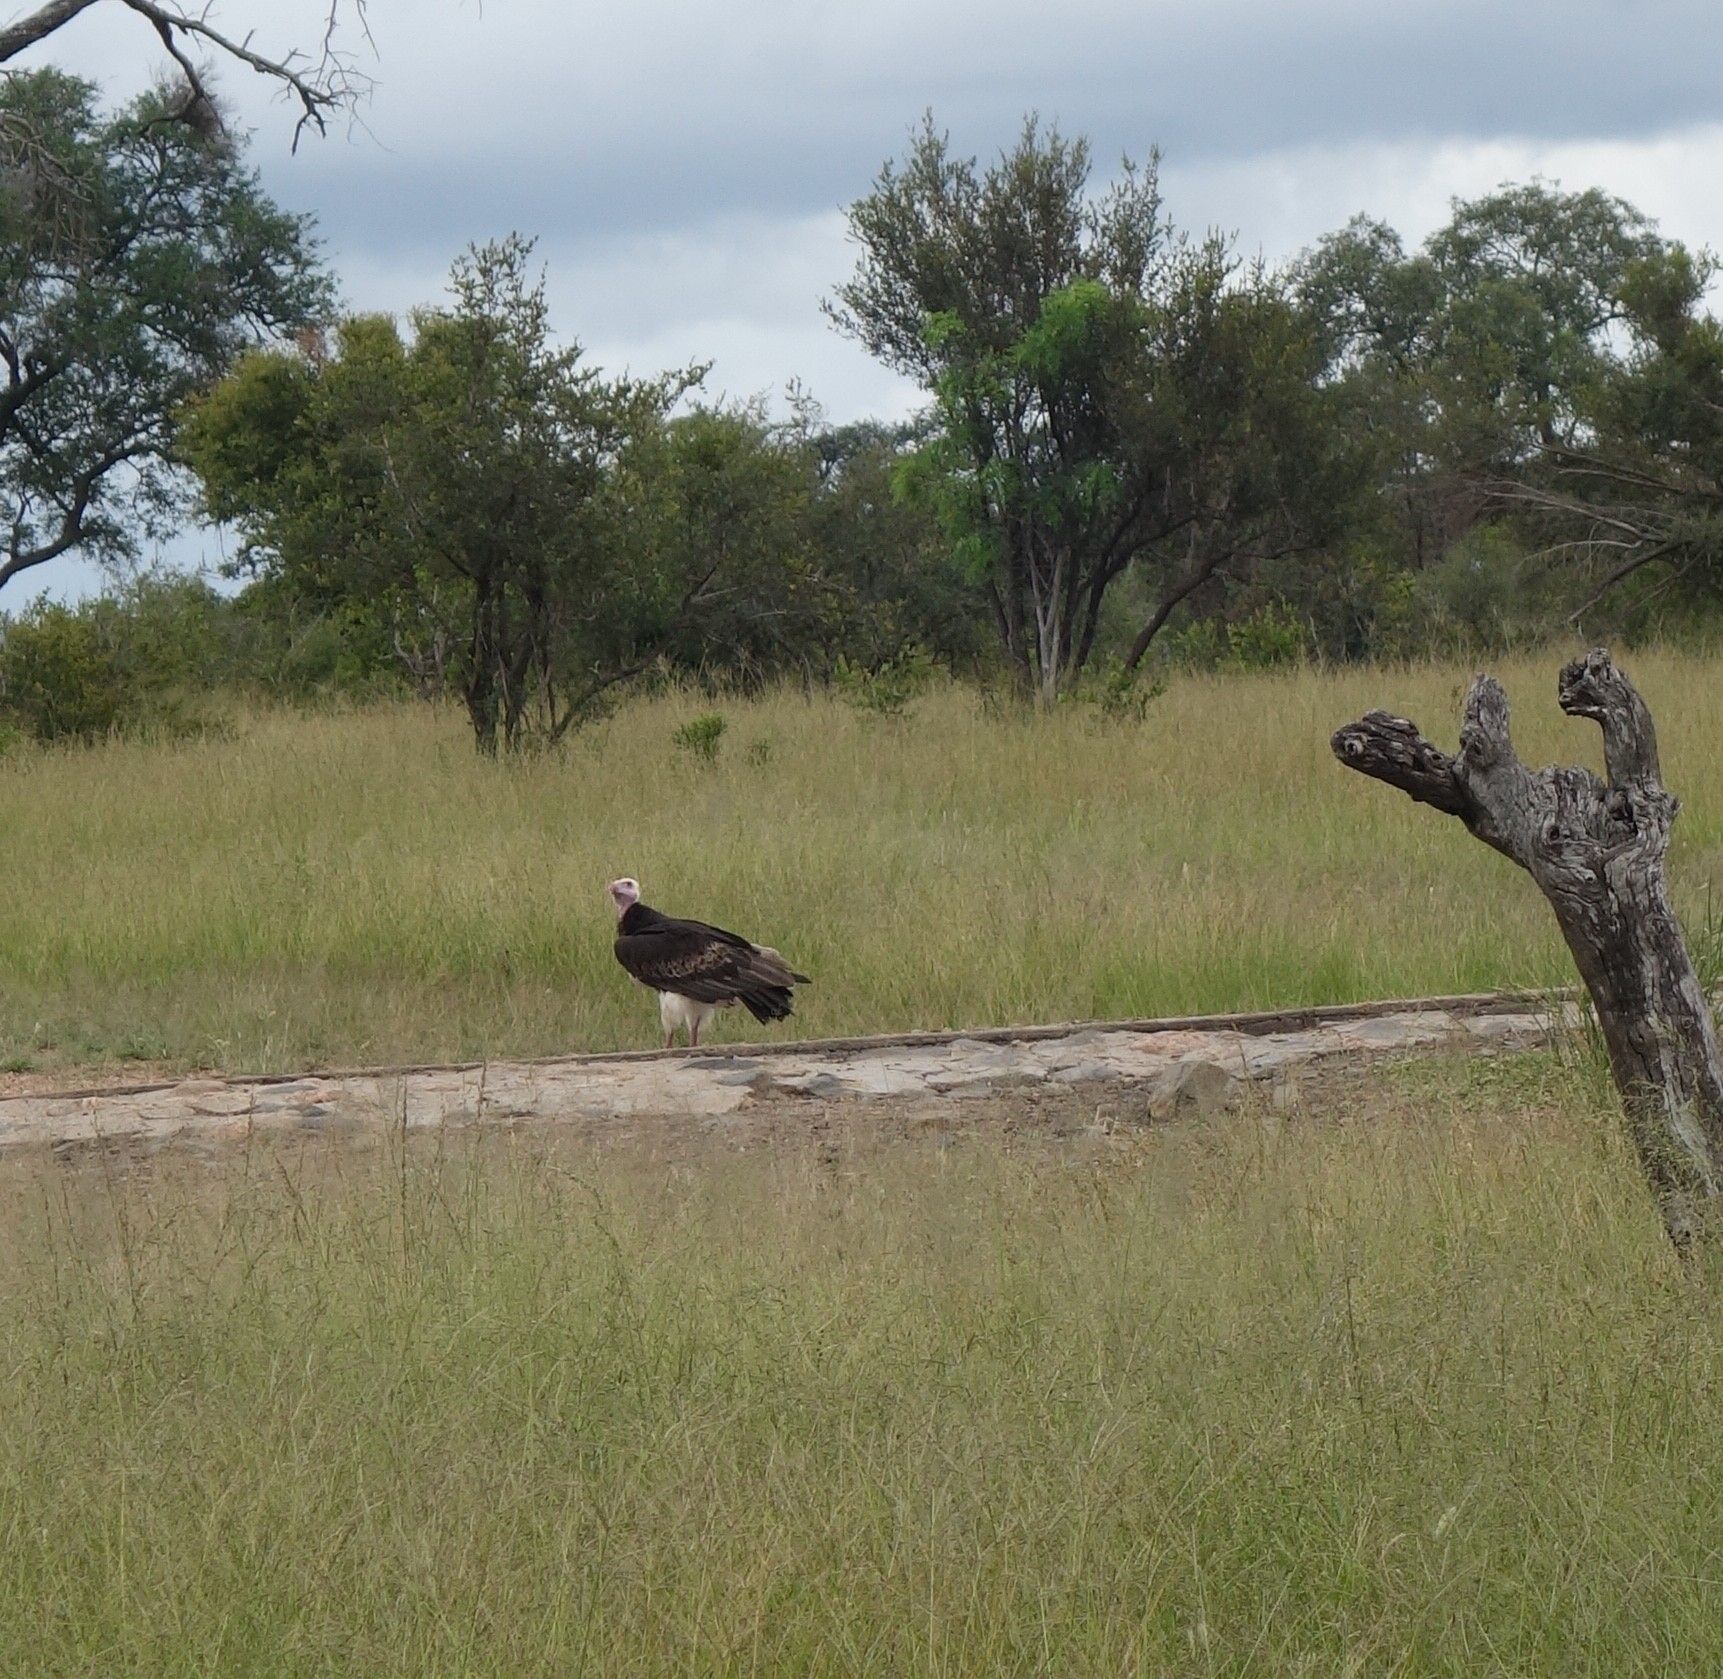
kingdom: Animalia
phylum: Chordata
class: Aves
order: Accipitriformes
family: Accipitridae
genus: Trigonoceps
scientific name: Trigonoceps occipitalis
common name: White-headed vulture
